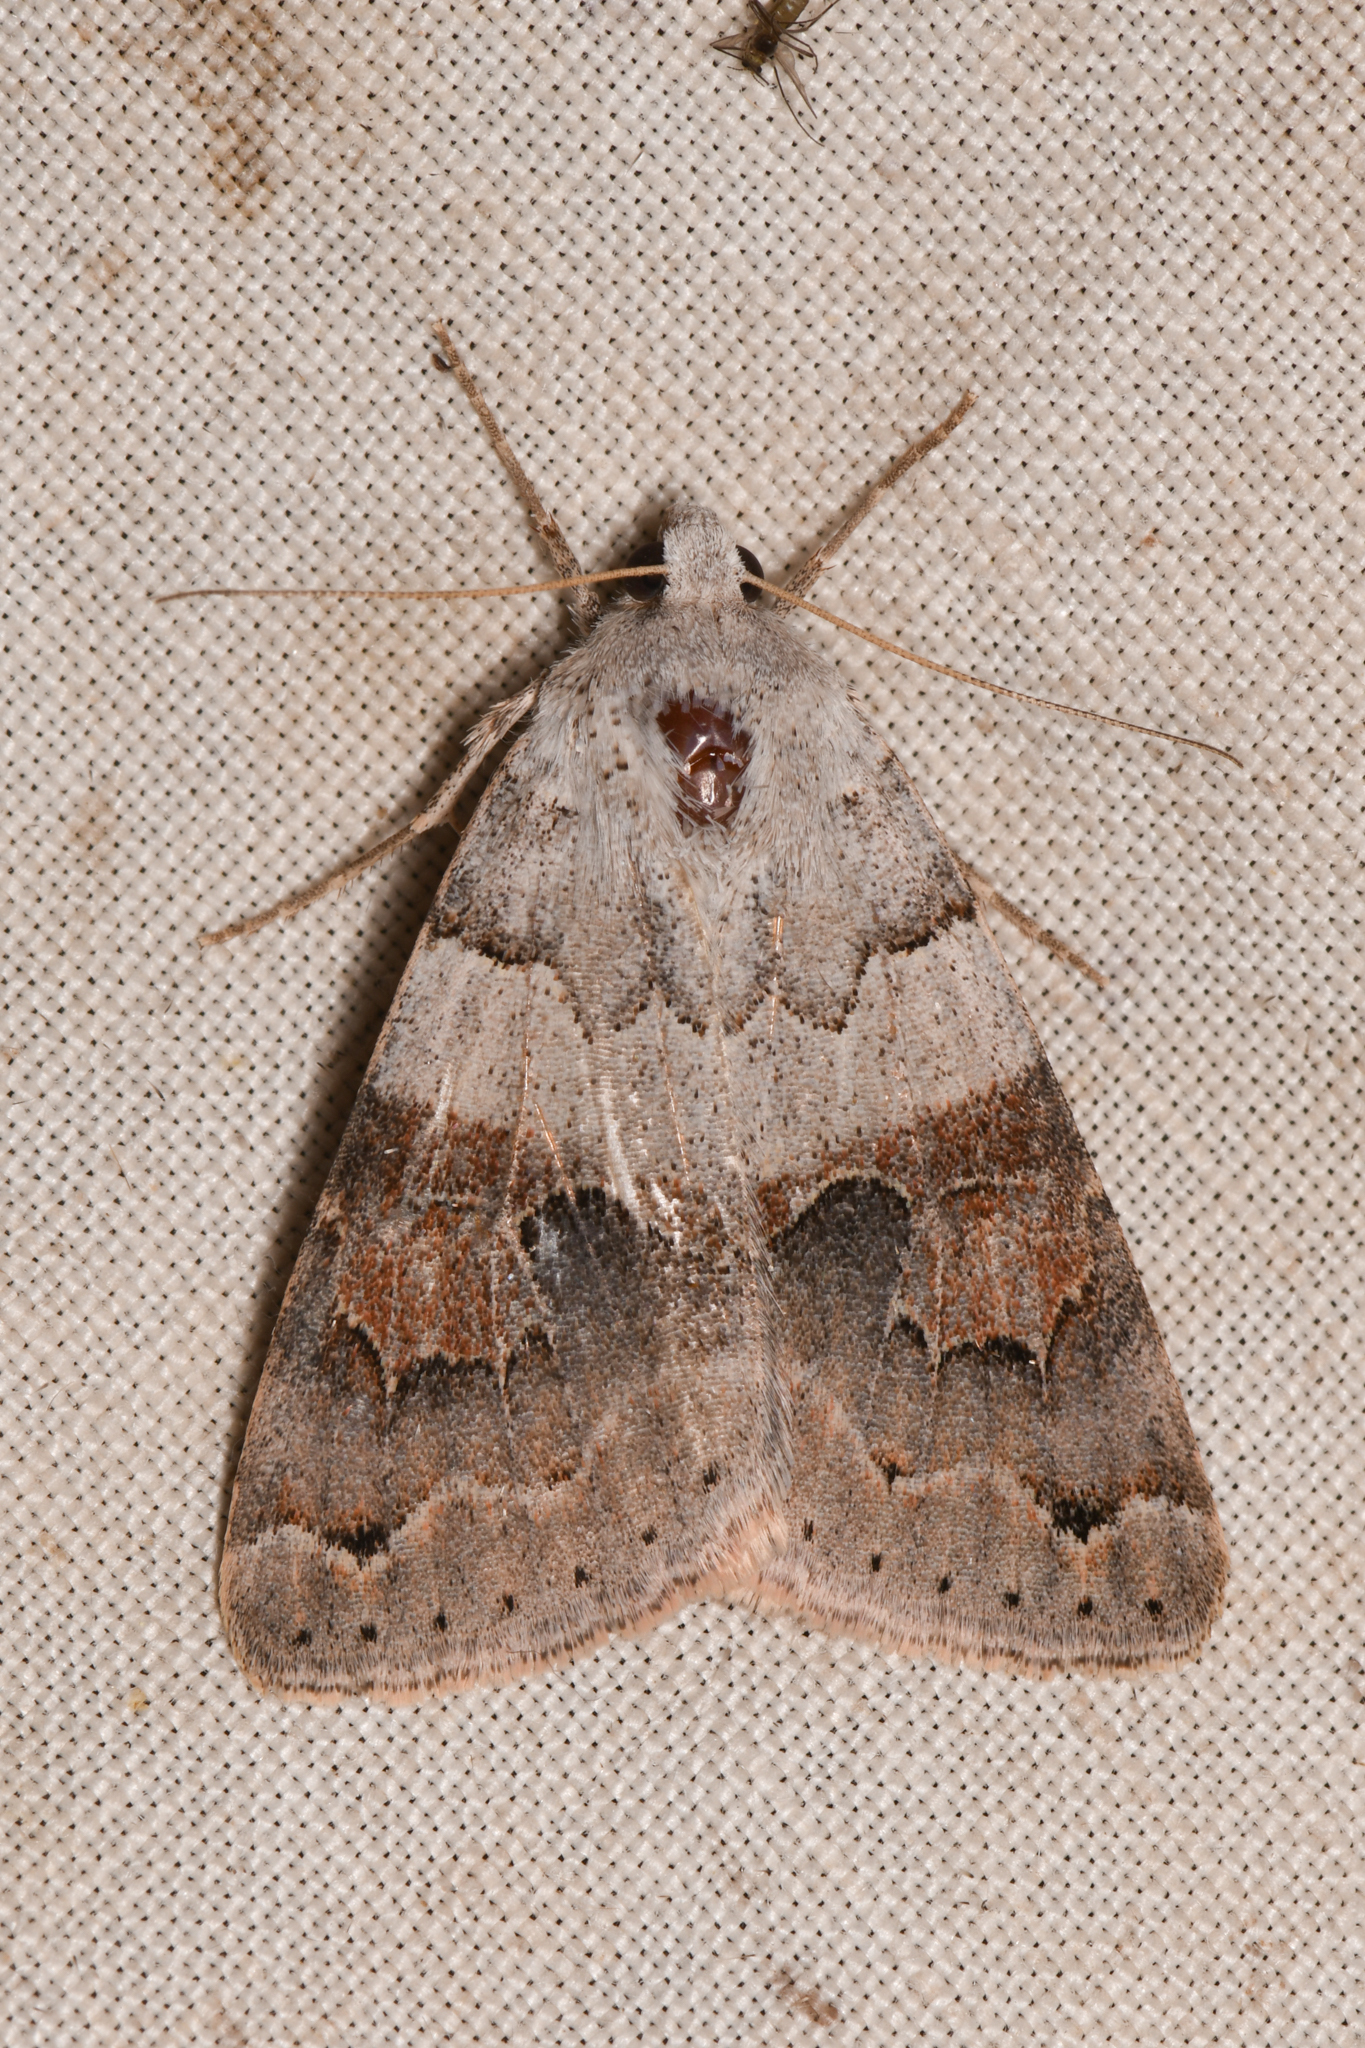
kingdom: Animalia
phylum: Arthropoda
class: Insecta
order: Lepidoptera
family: Erebidae
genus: Drasteria
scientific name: Drasteria scrupulosa
